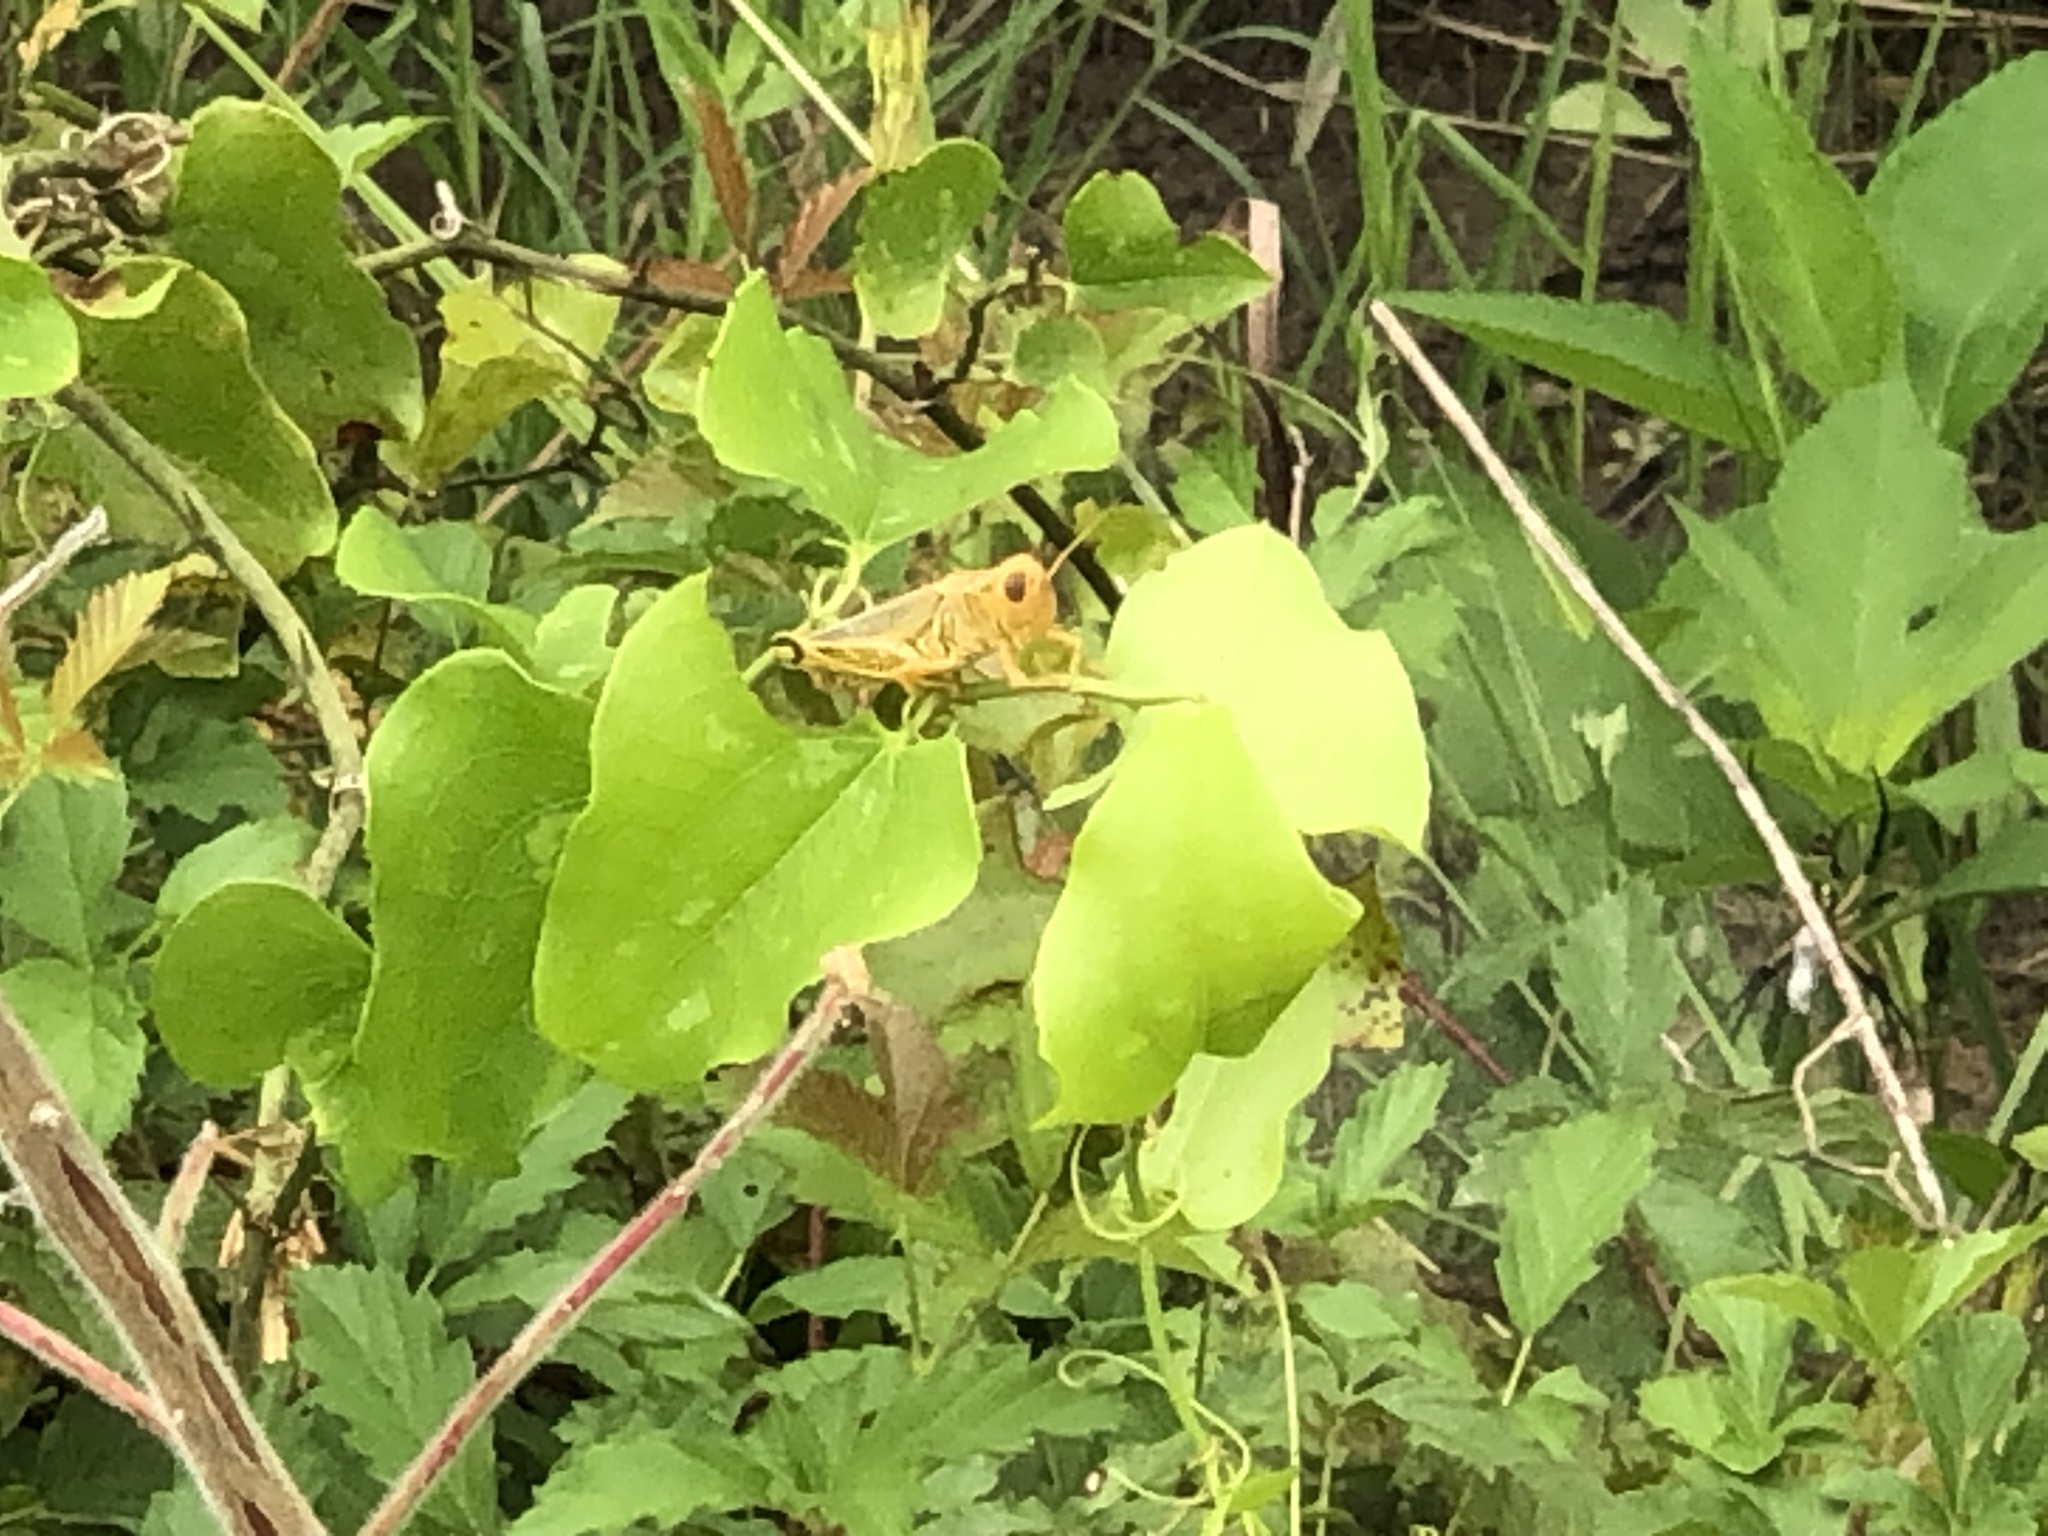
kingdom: Animalia
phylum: Arthropoda
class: Insecta
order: Orthoptera
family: Acrididae
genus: Melanoplus
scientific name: Melanoplus differentialis
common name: Differential grasshopper
